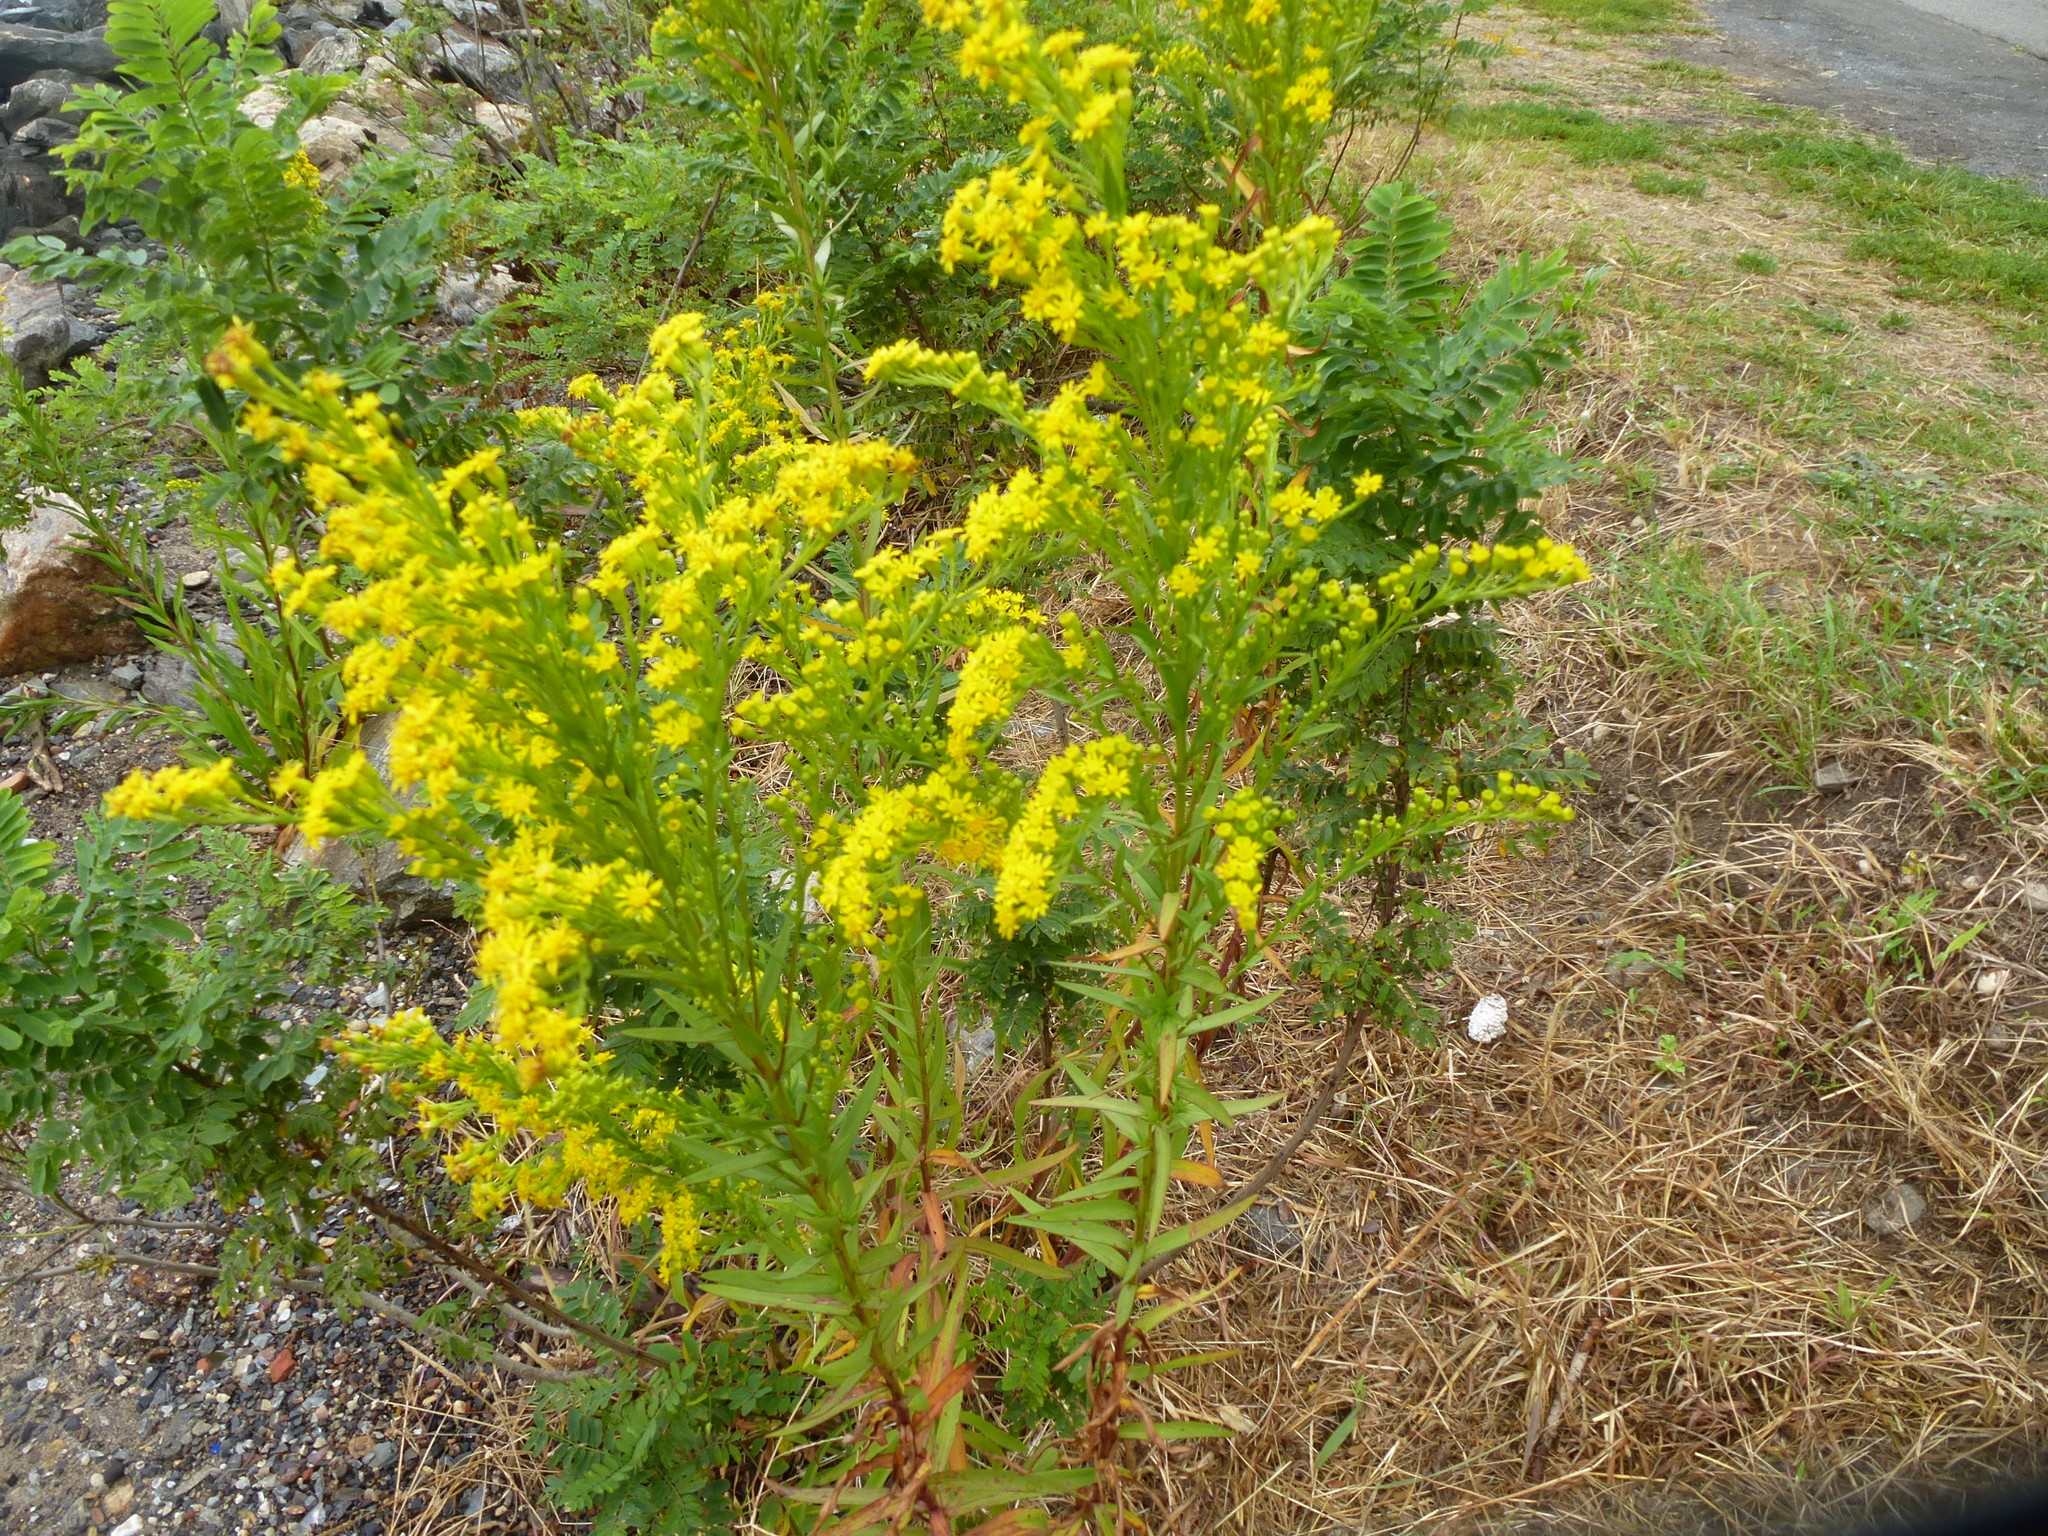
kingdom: Plantae
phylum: Tracheophyta
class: Magnoliopsida
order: Asterales
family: Asteraceae
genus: Solidago
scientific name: Solidago sempervirens
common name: Salt-marsh goldenrod
